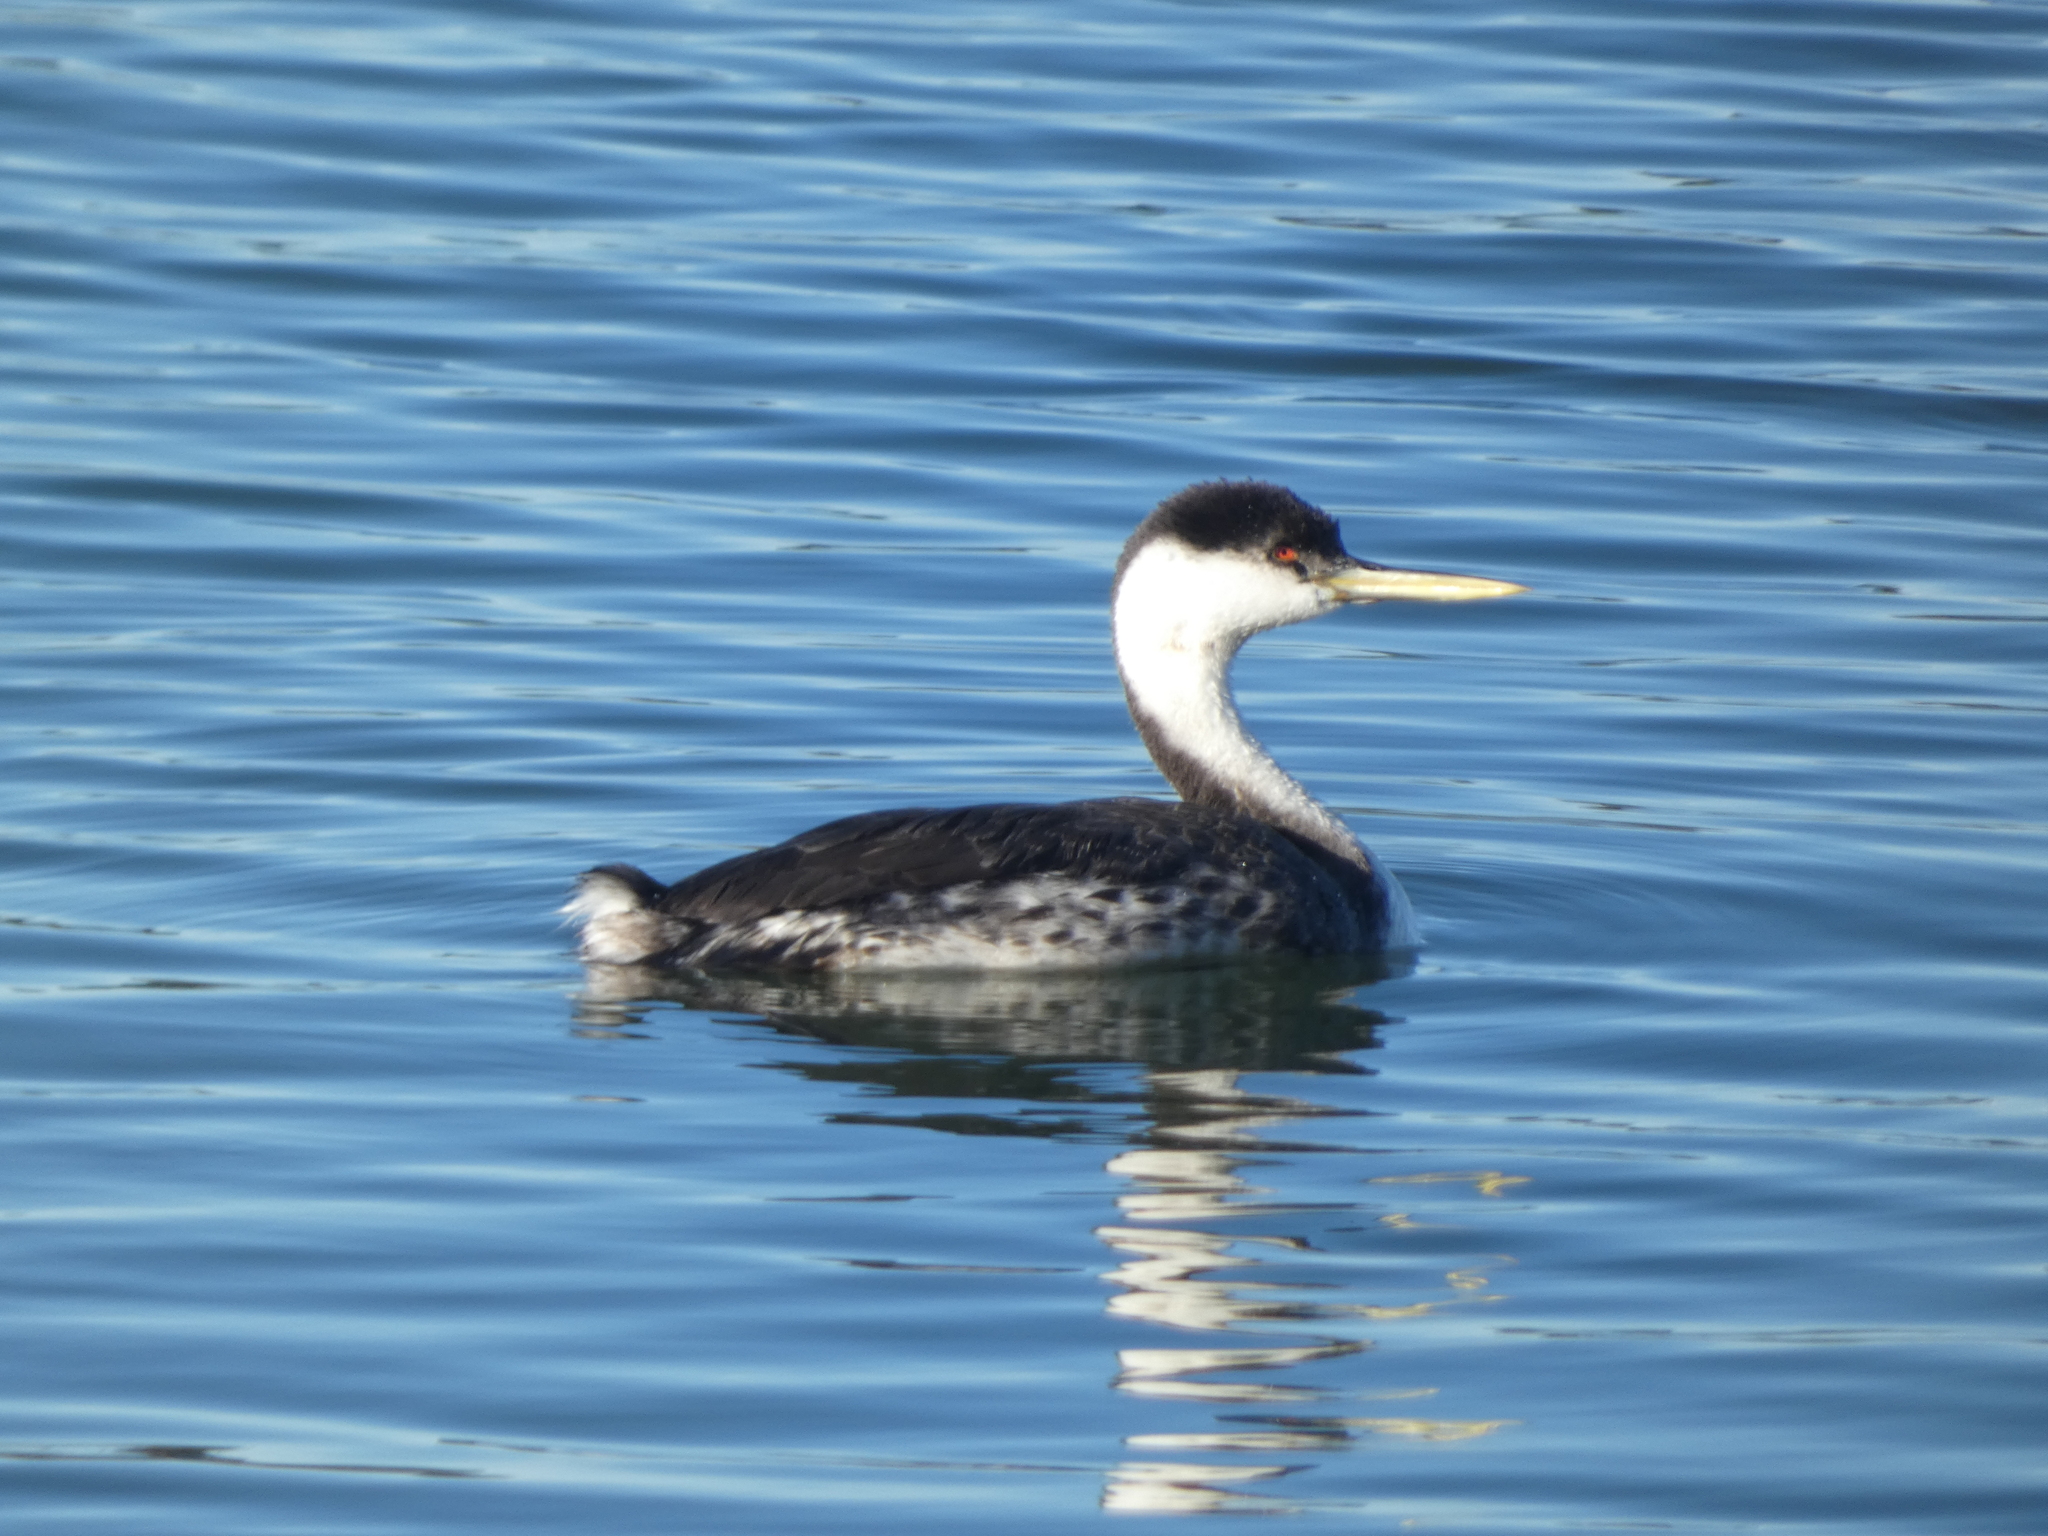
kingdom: Animalia
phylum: Chordata
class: Aves
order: Podicipediformes
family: Podicipedidae
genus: Aechmophorus
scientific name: Aechmophorus occidentalis
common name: Western grebe
